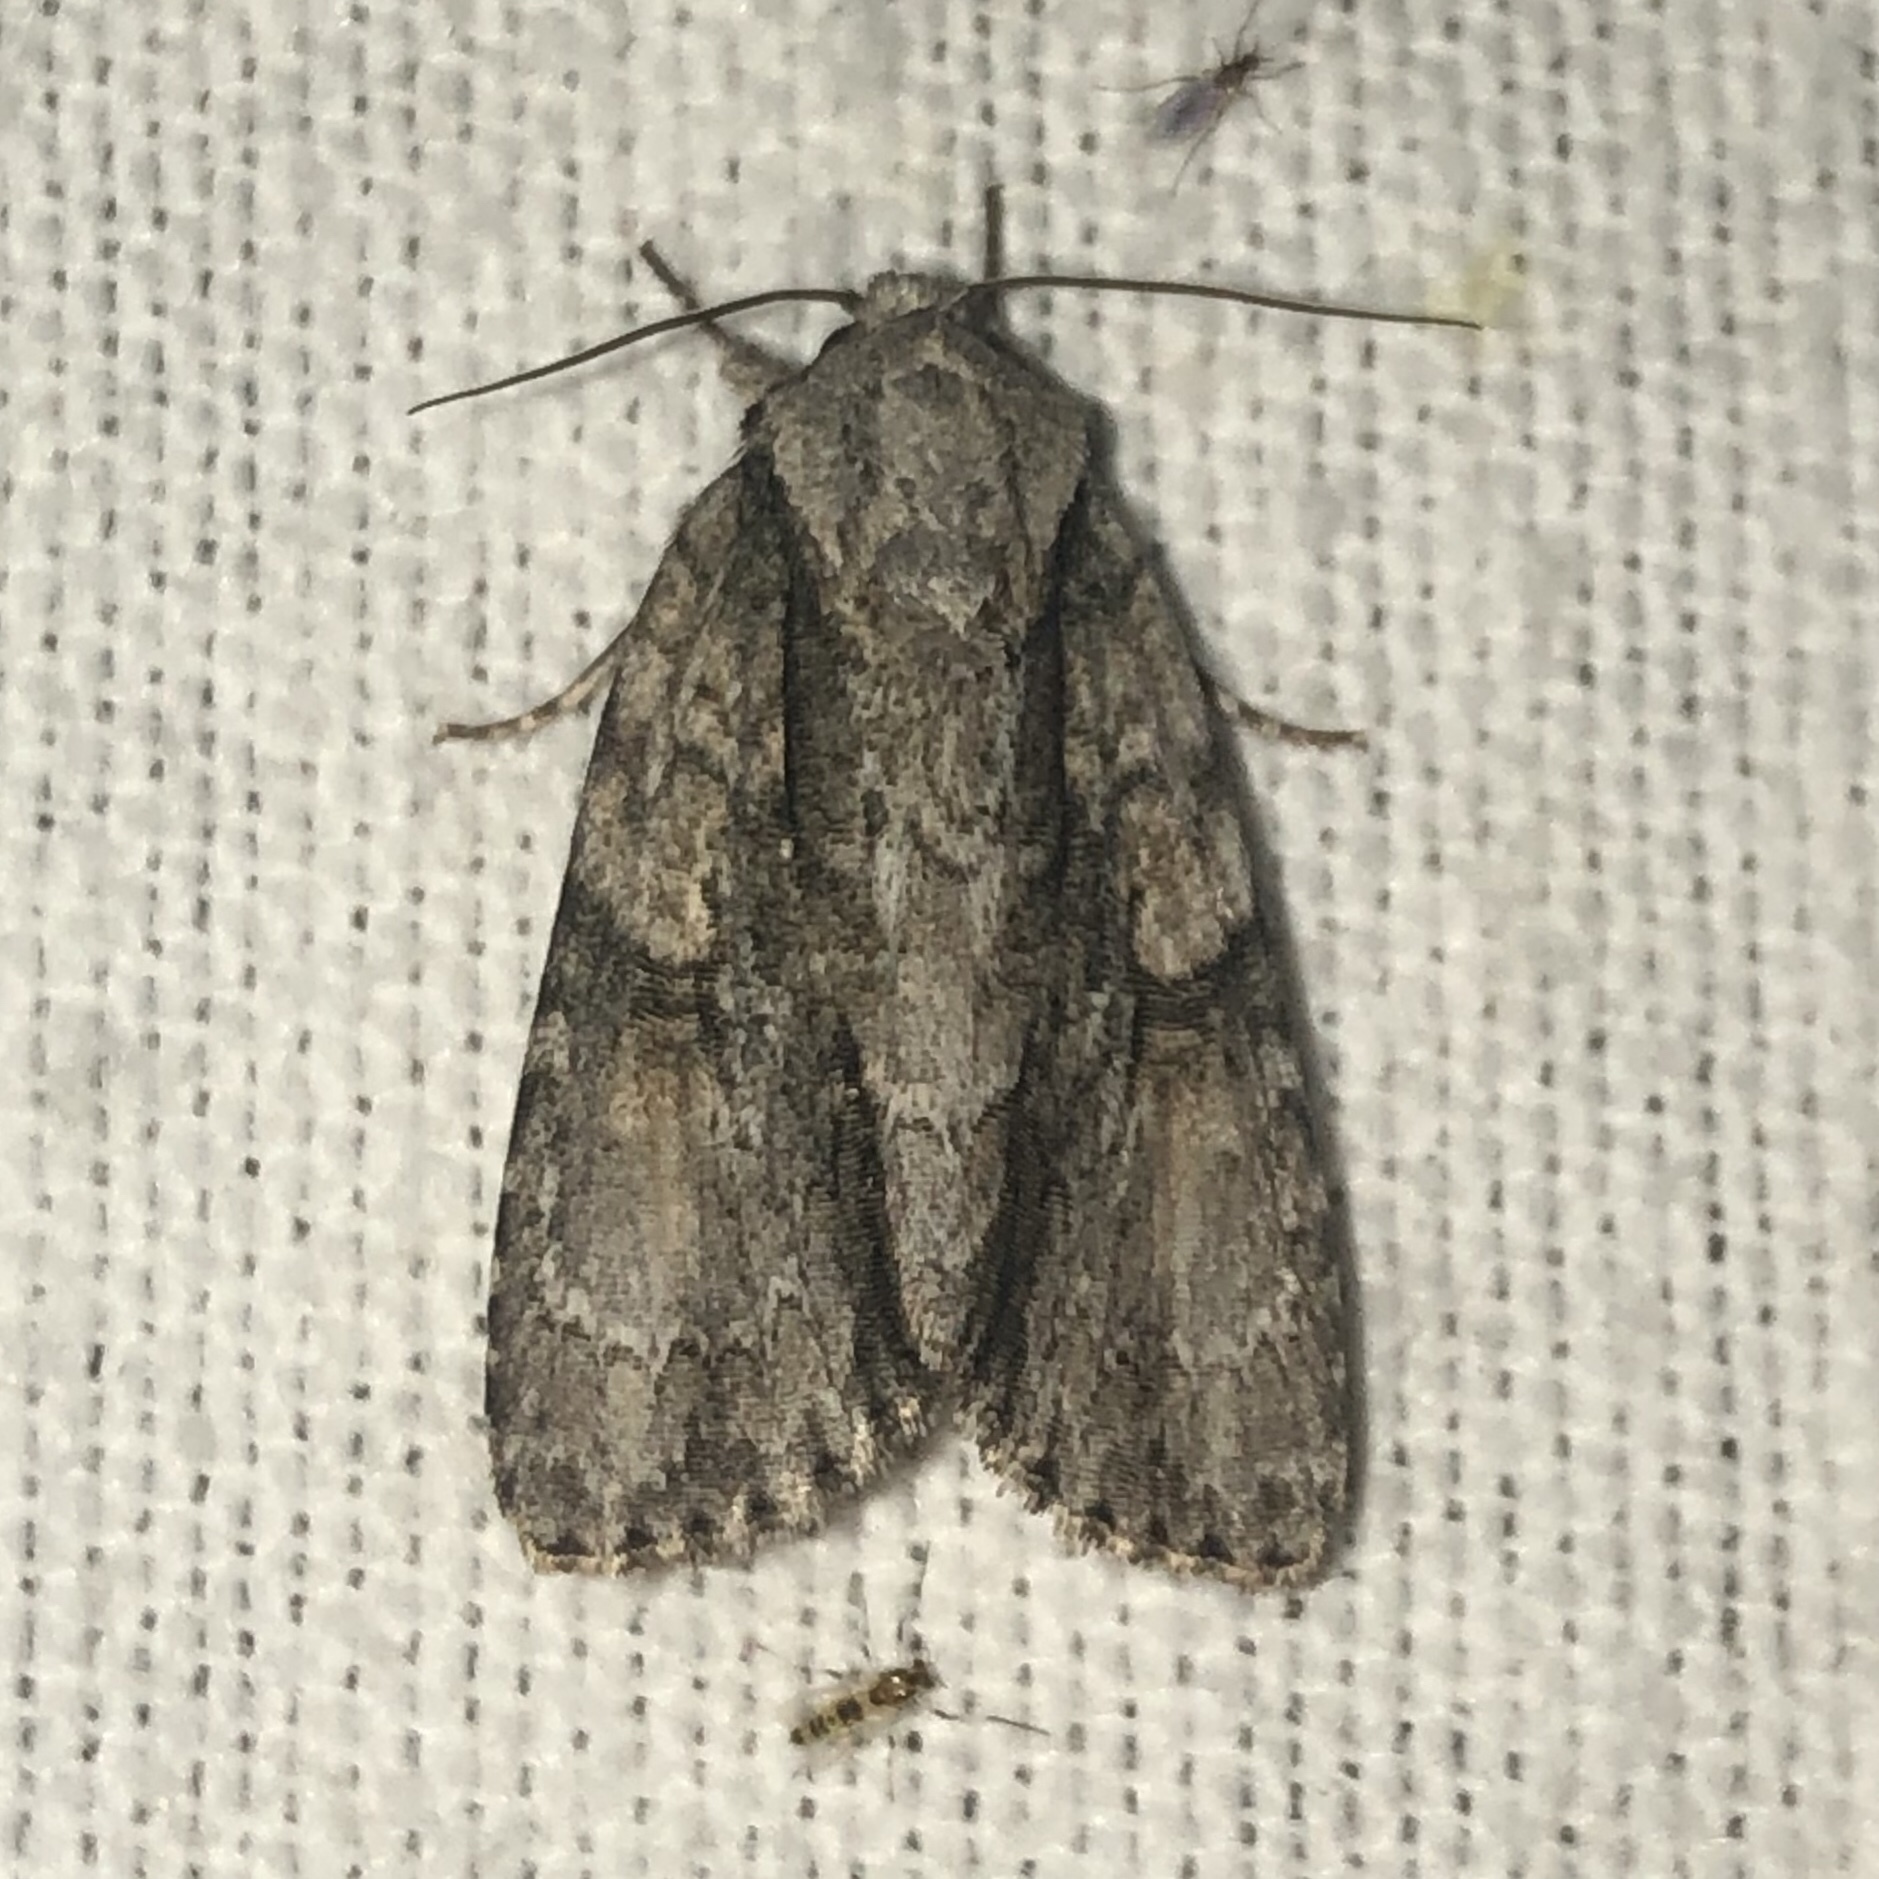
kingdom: Animalia
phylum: Arthropoda
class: Insecta
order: Lepidoptera
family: Noctuidae
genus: Acronicta
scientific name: Acronicta connecta
